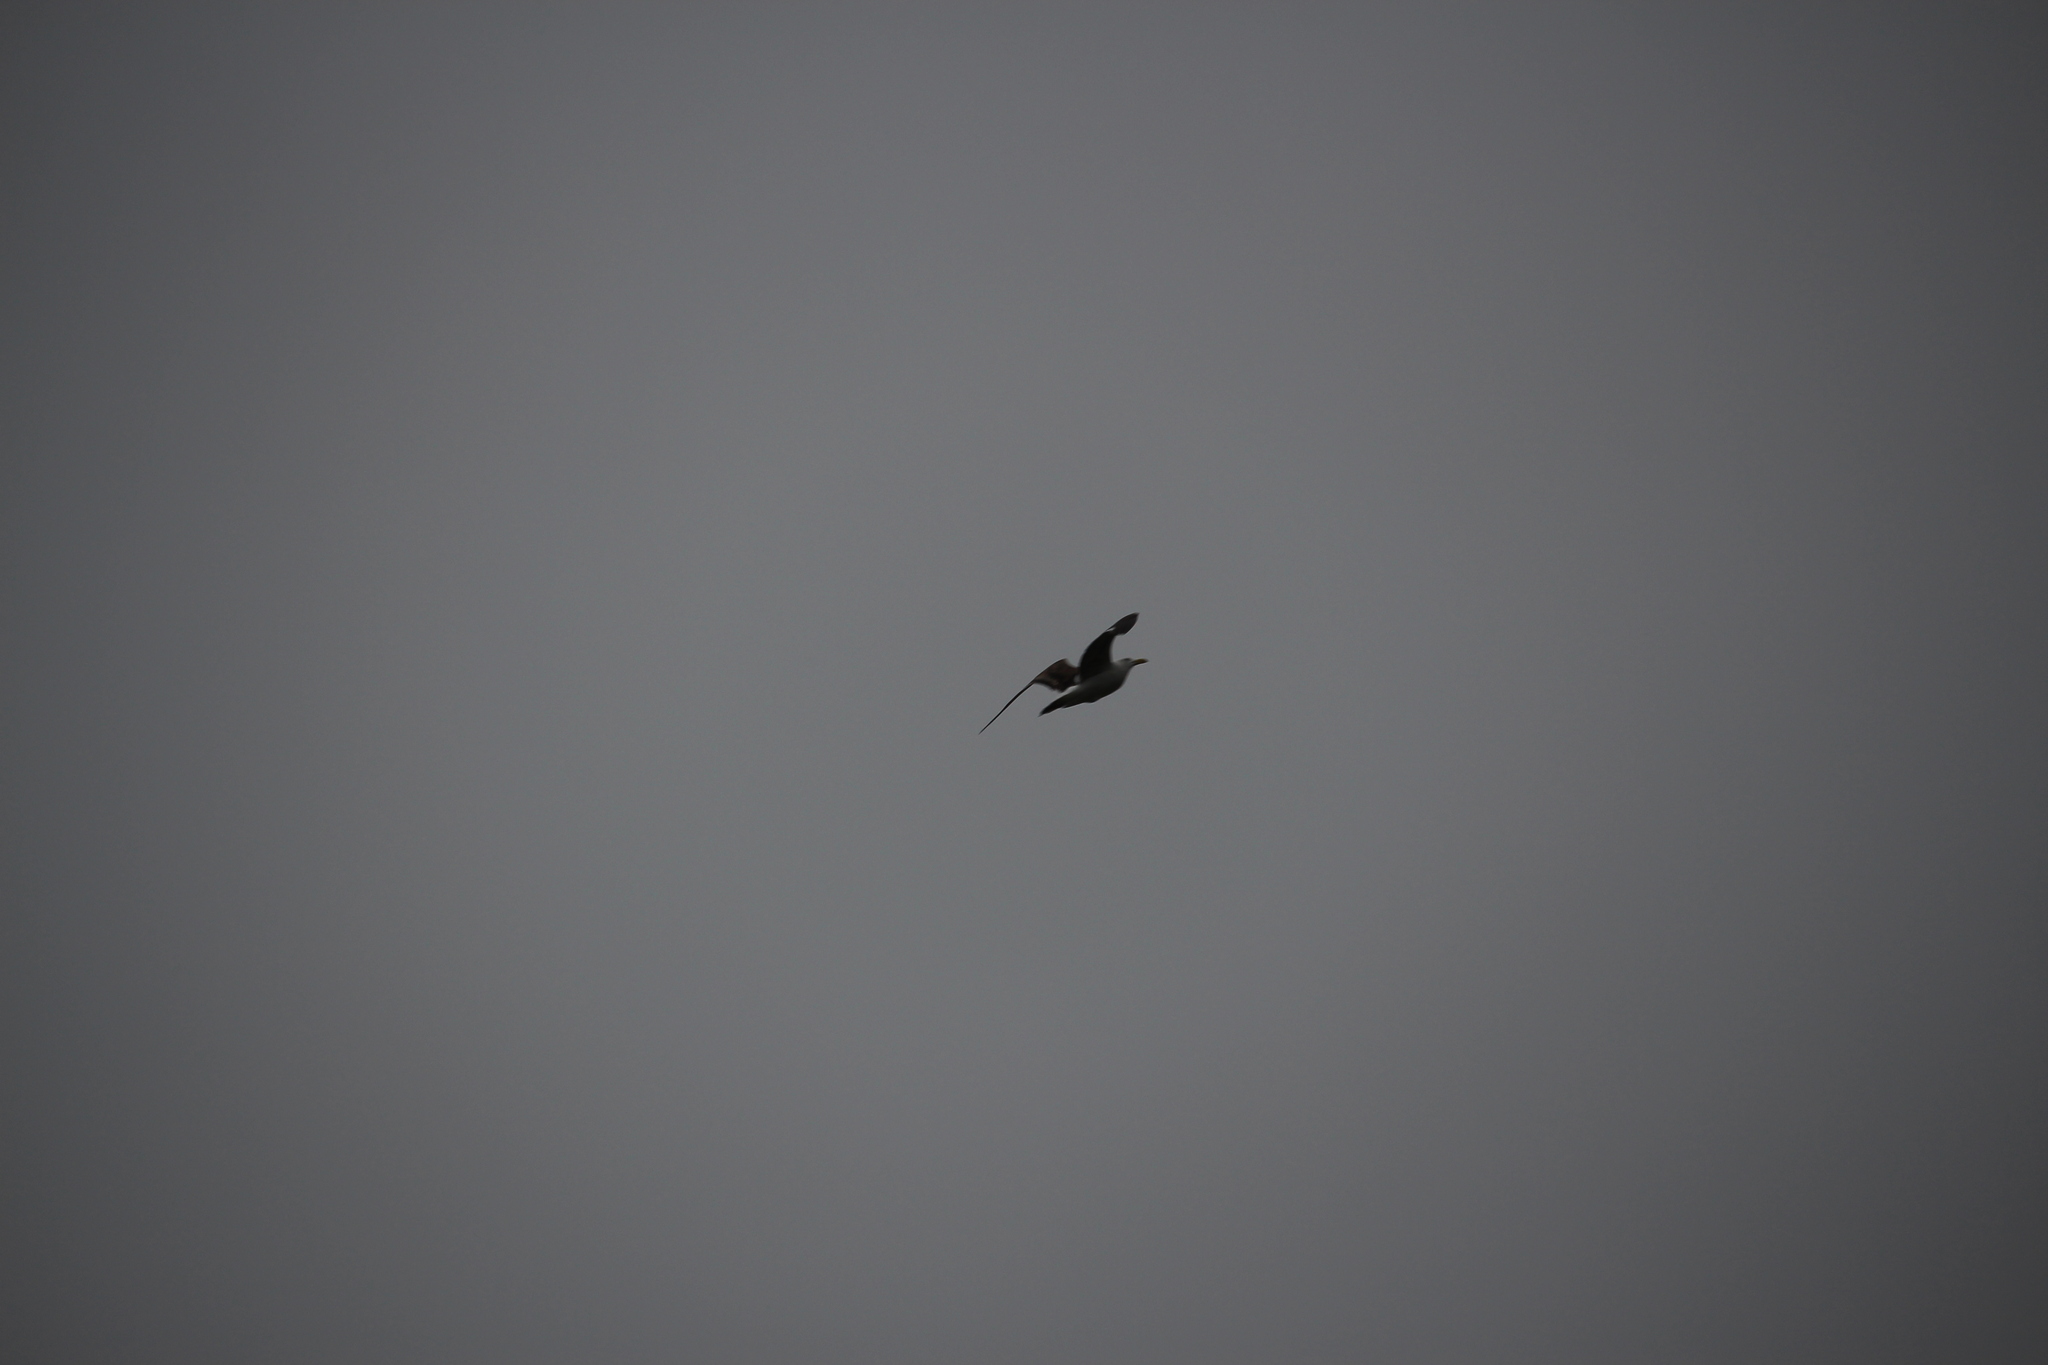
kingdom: Animalia
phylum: Chordata
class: Aves
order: Charadriiformes
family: Laridae
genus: Larus
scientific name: Larus dominicanus
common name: Kelp gull
